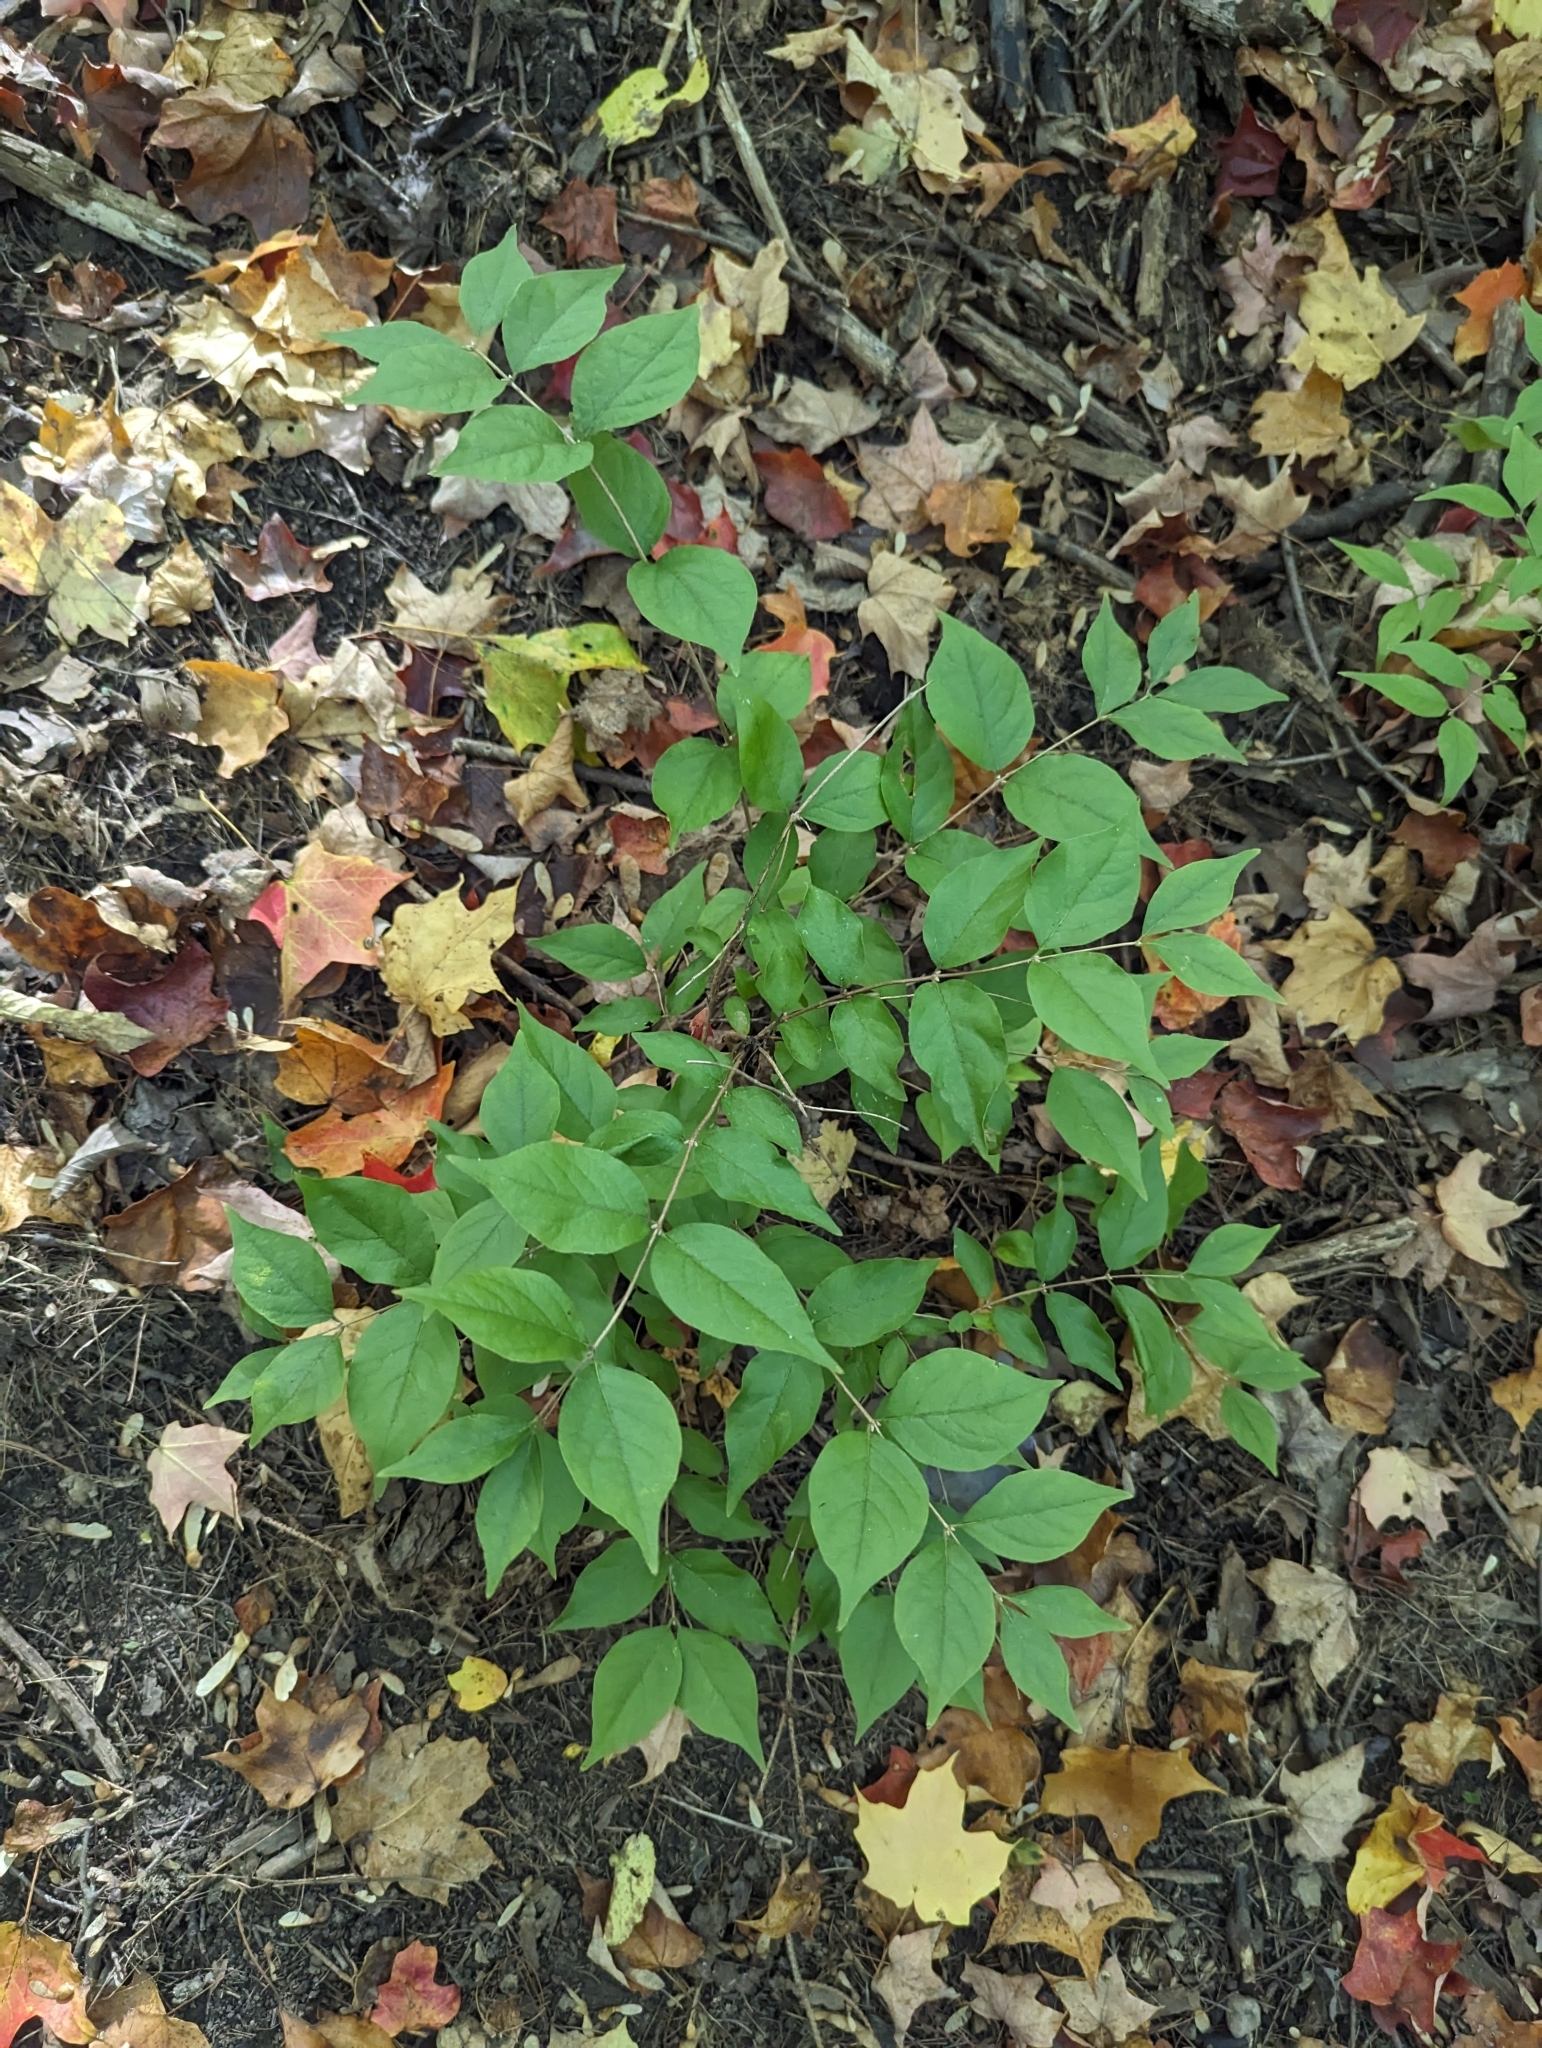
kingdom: Plantae
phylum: Tracheophyta
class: Magnoliopsida
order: Dipsacales
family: Caprifoliaceae
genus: Lonicera
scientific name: Lonicera maackii
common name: Amur honeysuckle
